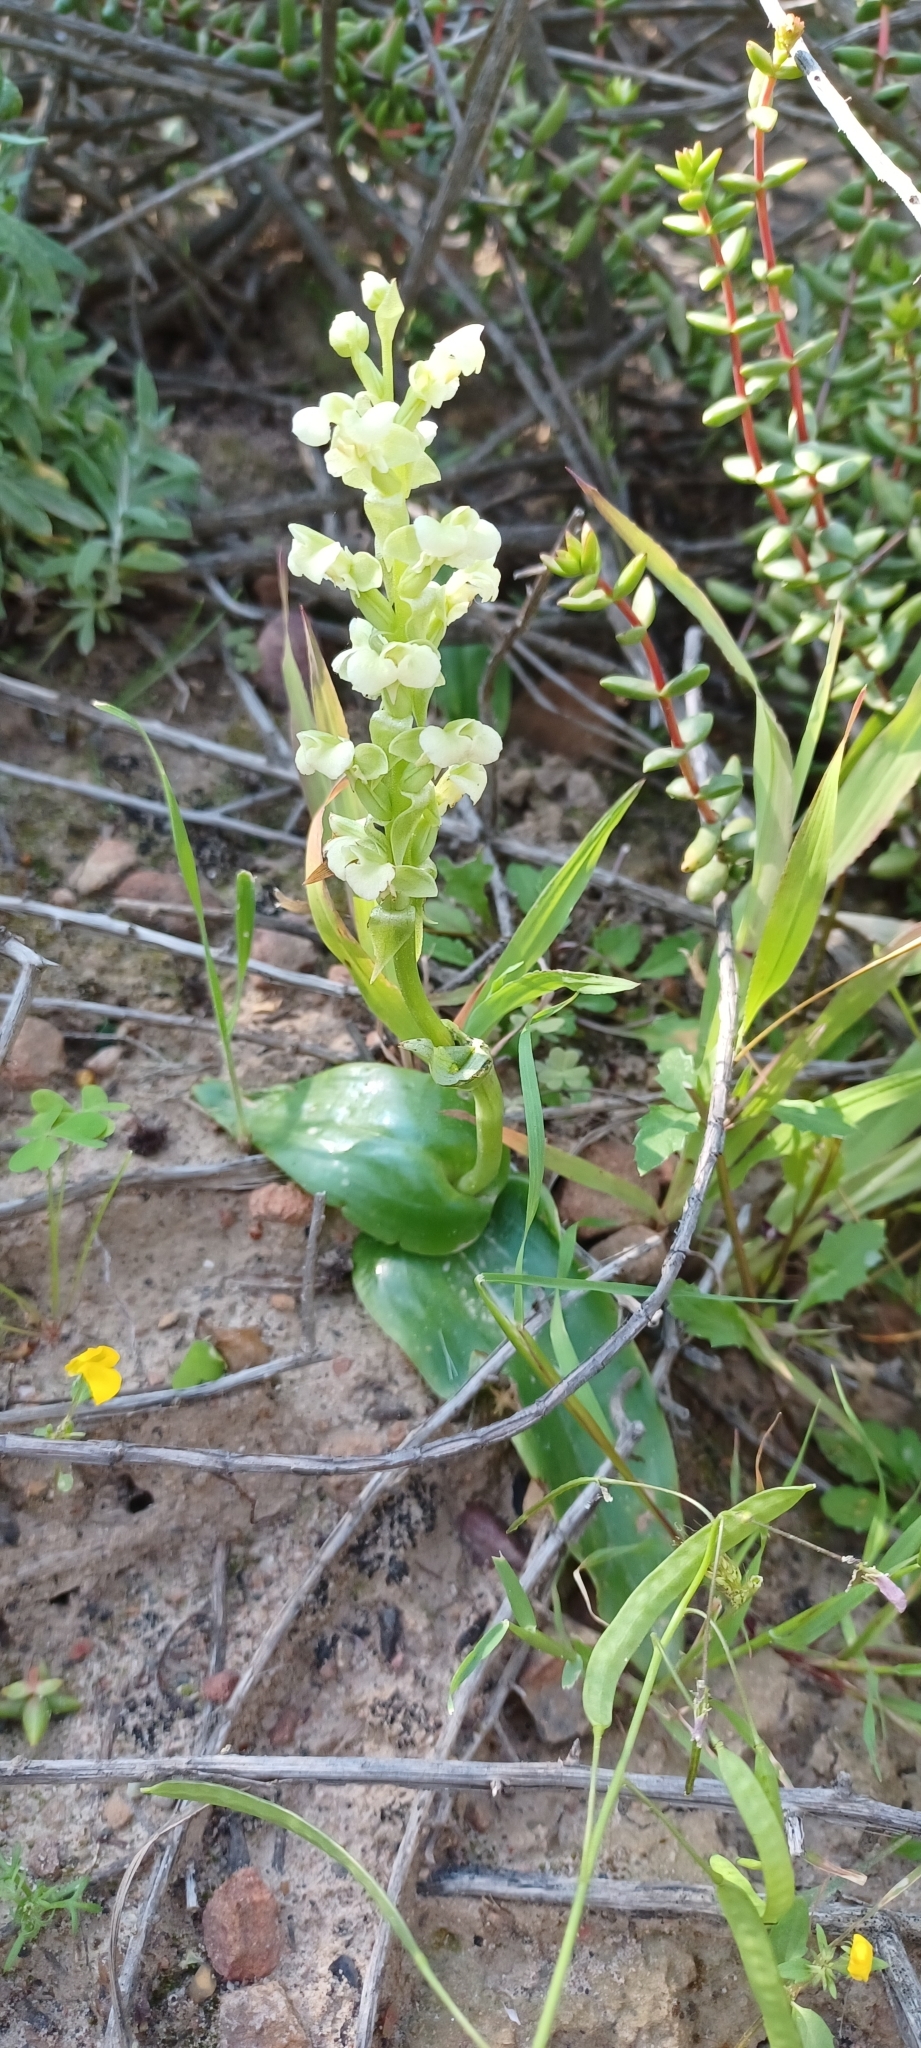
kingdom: Plantae
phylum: Tracheophyta
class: Liliopsida
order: Asparagales
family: Orchidaceae
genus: Pterygodium
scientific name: Pterygodium volucris
